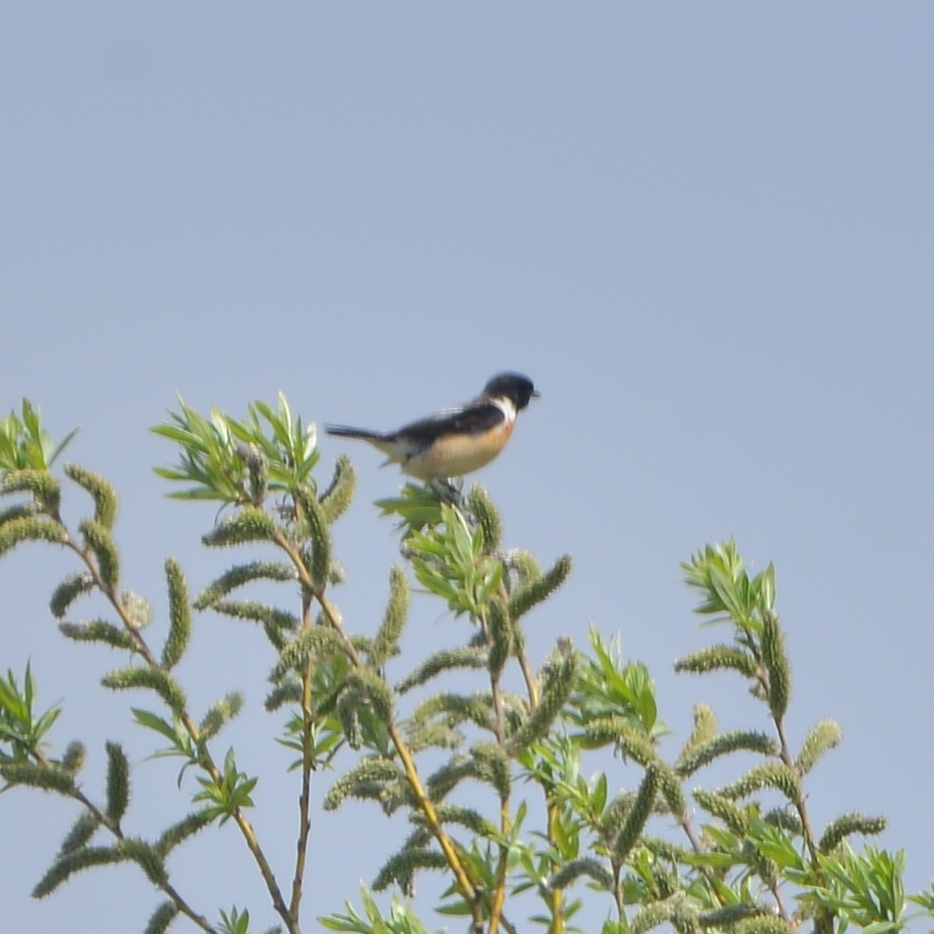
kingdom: Animalia
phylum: Chordata
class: Aves
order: Passeriformes
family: Muscicapidae
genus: Saxicola
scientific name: Saxicola stejnegeri
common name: Stejneger's stonechat
